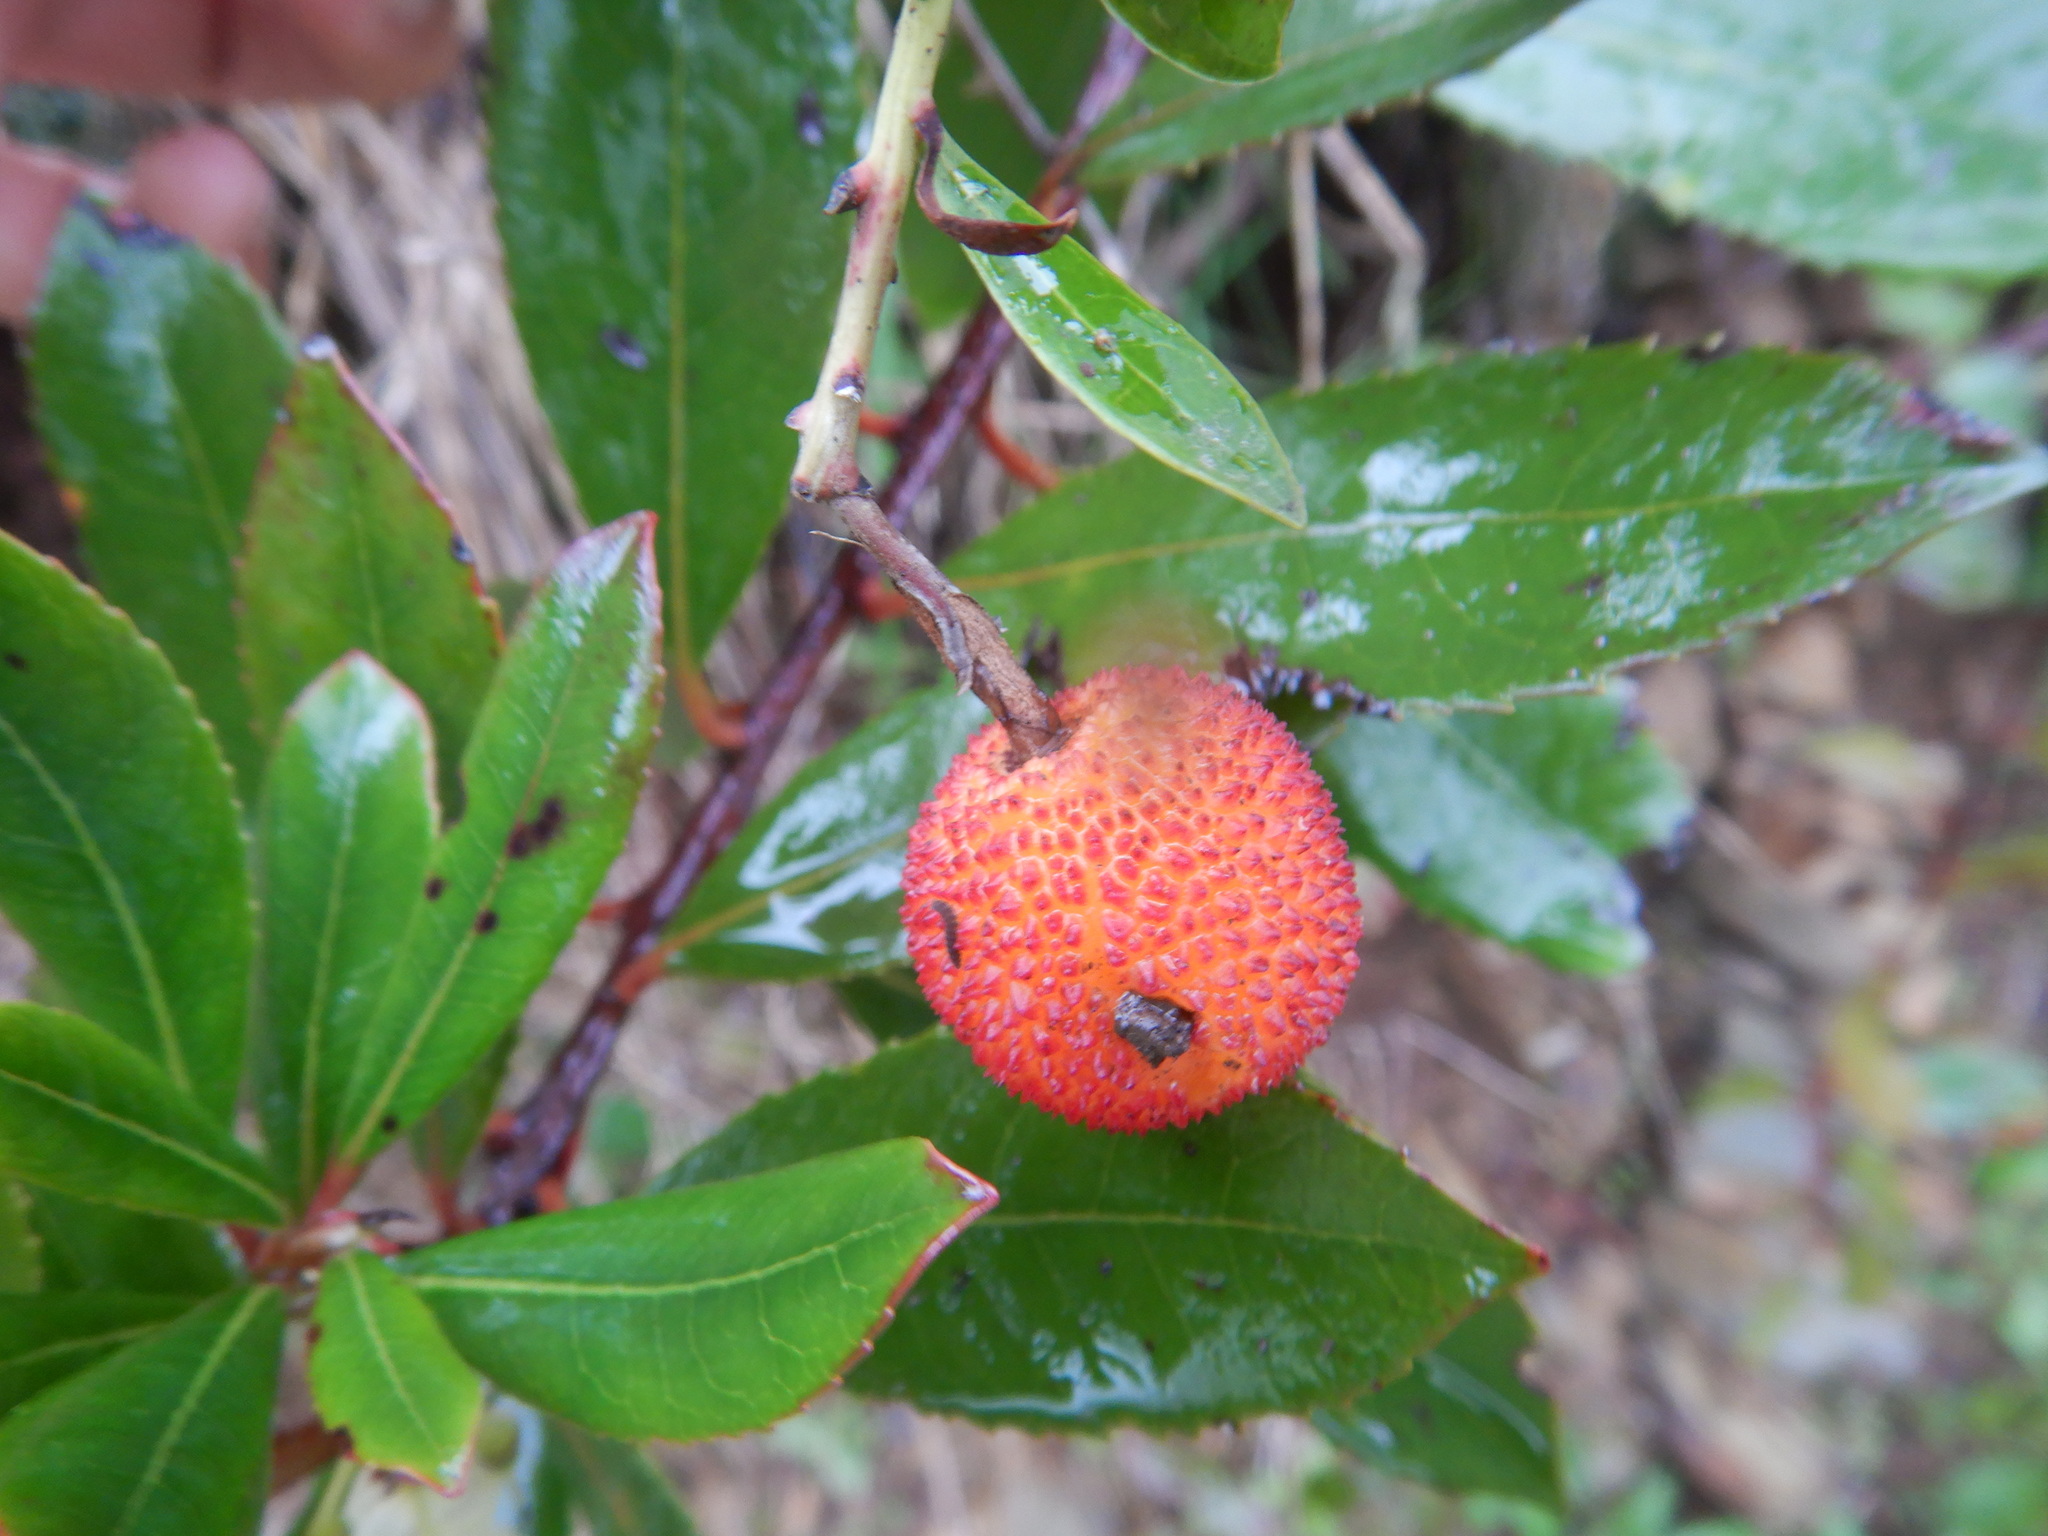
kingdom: Plantae
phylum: Tracheophyta
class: Magnoliopsida
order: Ericales
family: Ericaceae
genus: Arbutus
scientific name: Arbutus unedo
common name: Strawberry-tree
